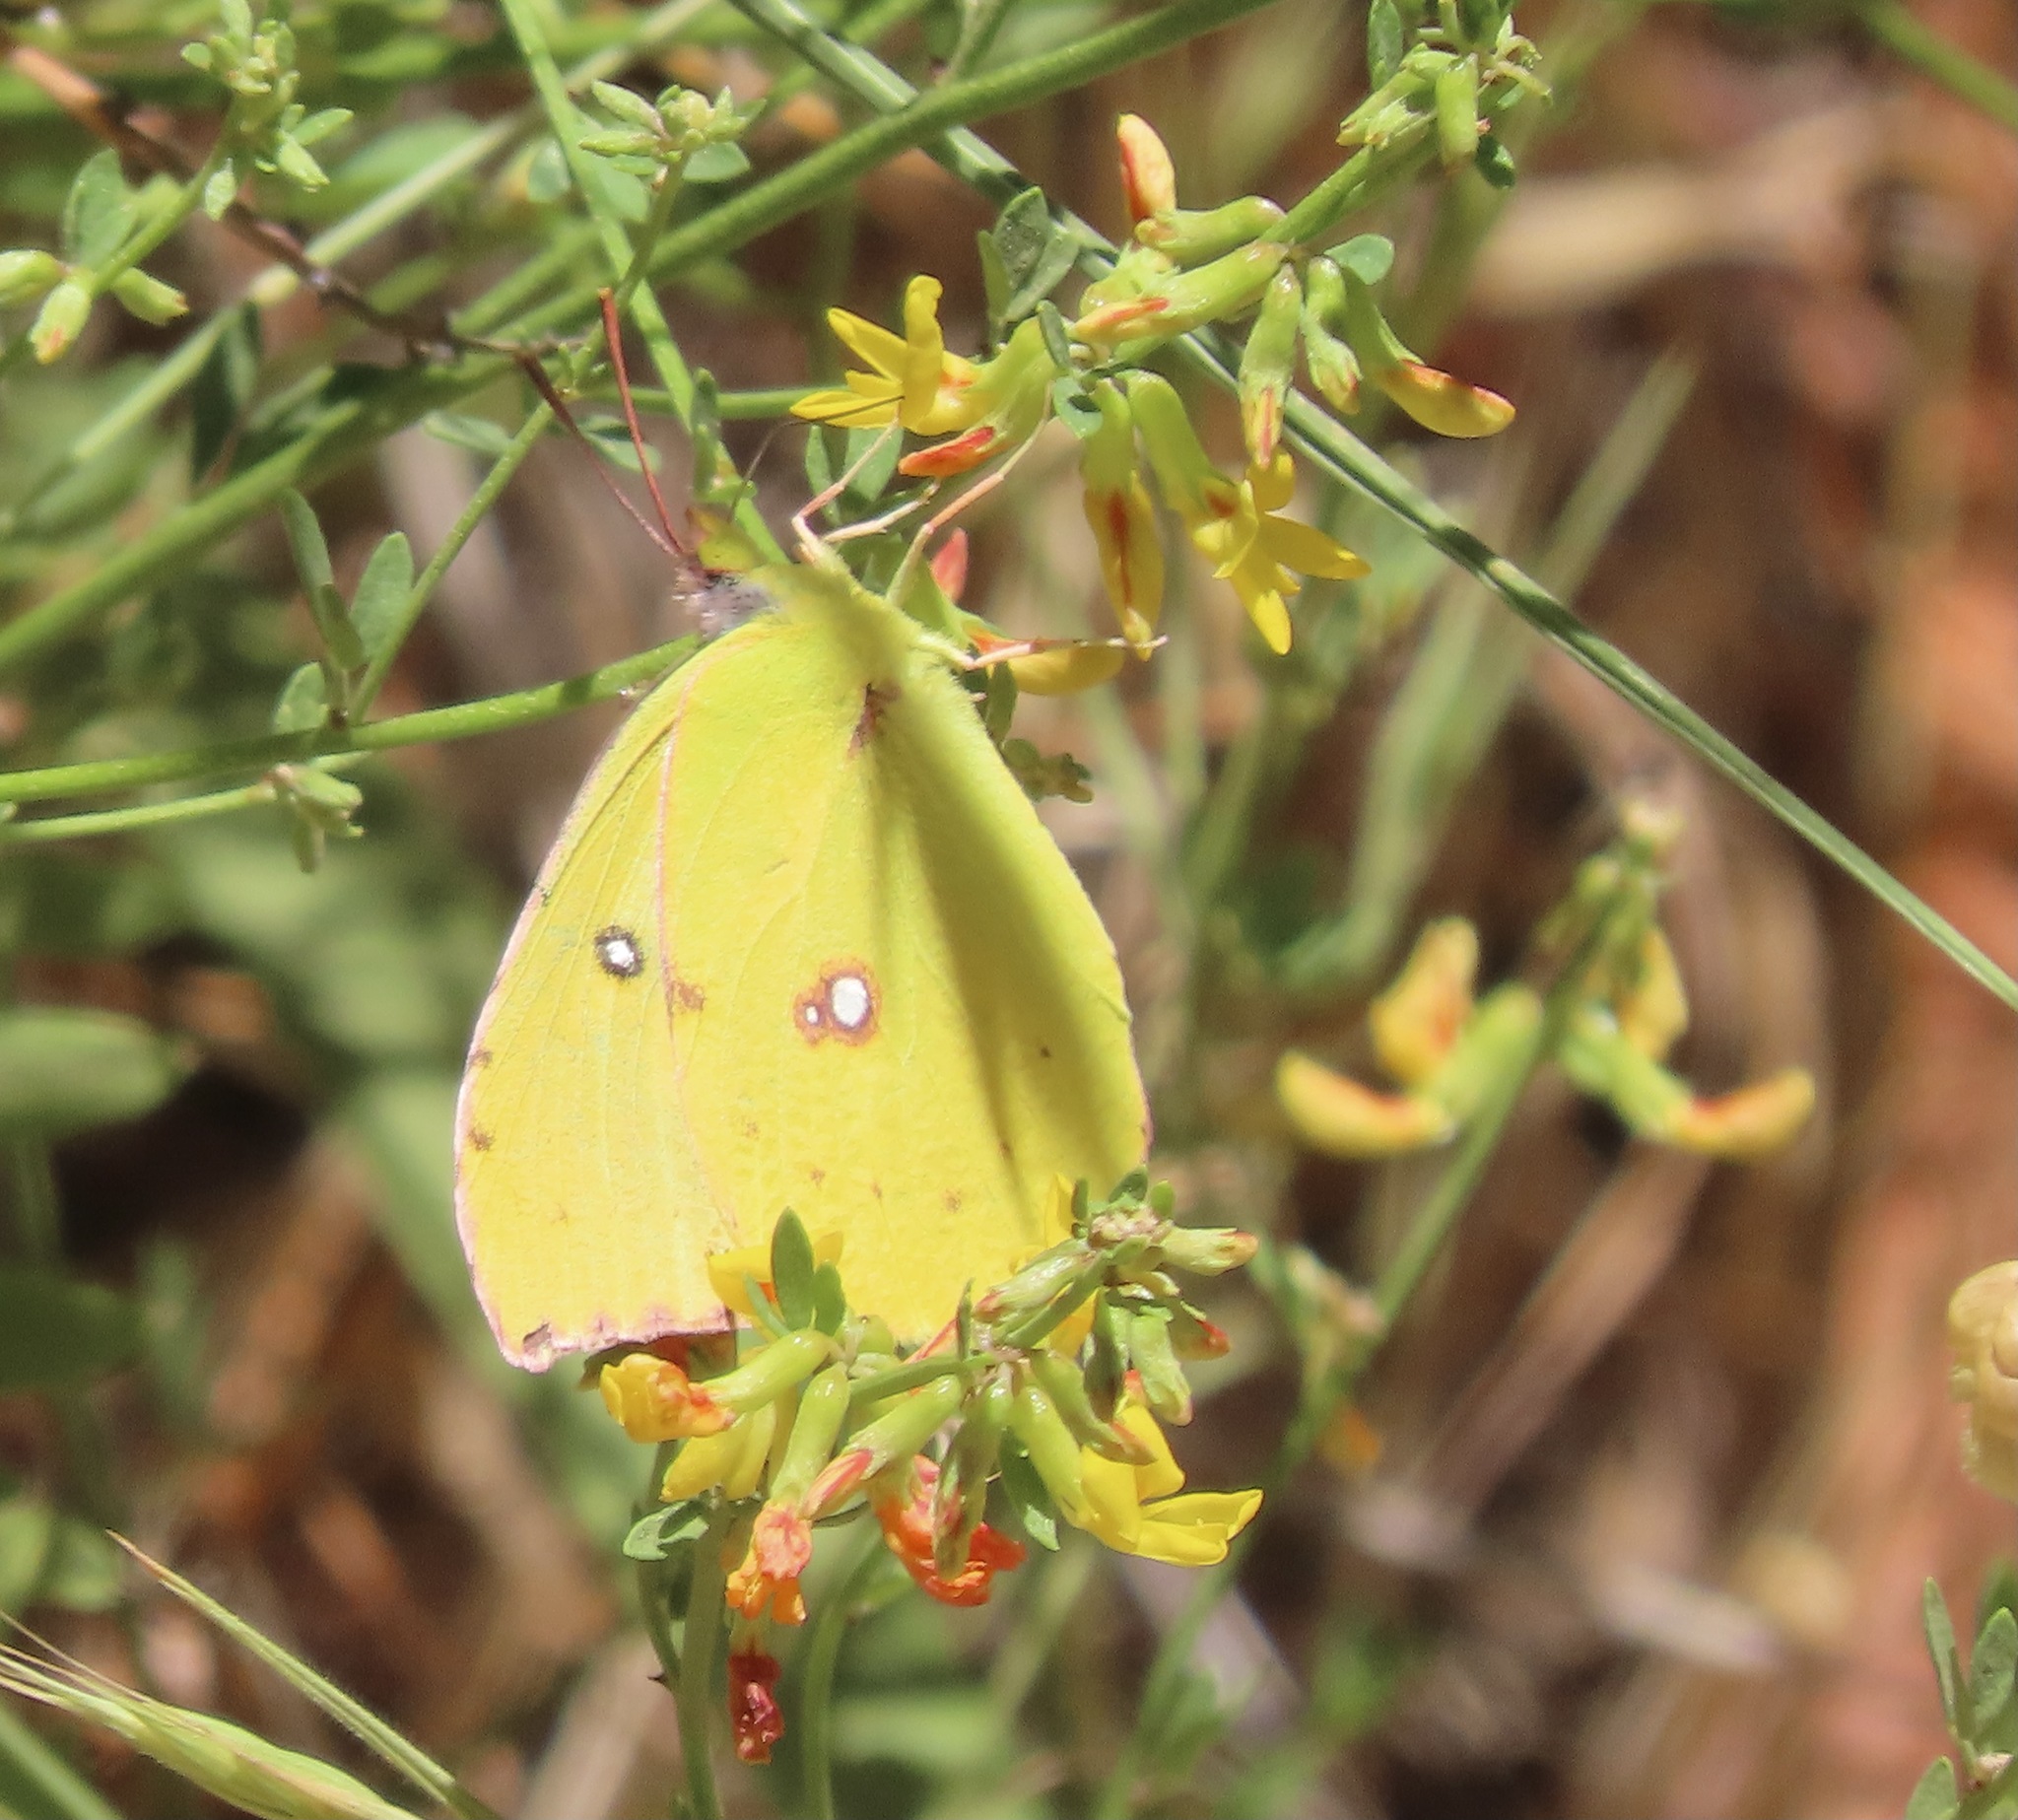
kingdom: Animalia
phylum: Arthropoda
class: Insecta
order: Lepidoptera
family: Pieridae
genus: Zerene
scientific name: Zerene eurydice
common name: California dogface
